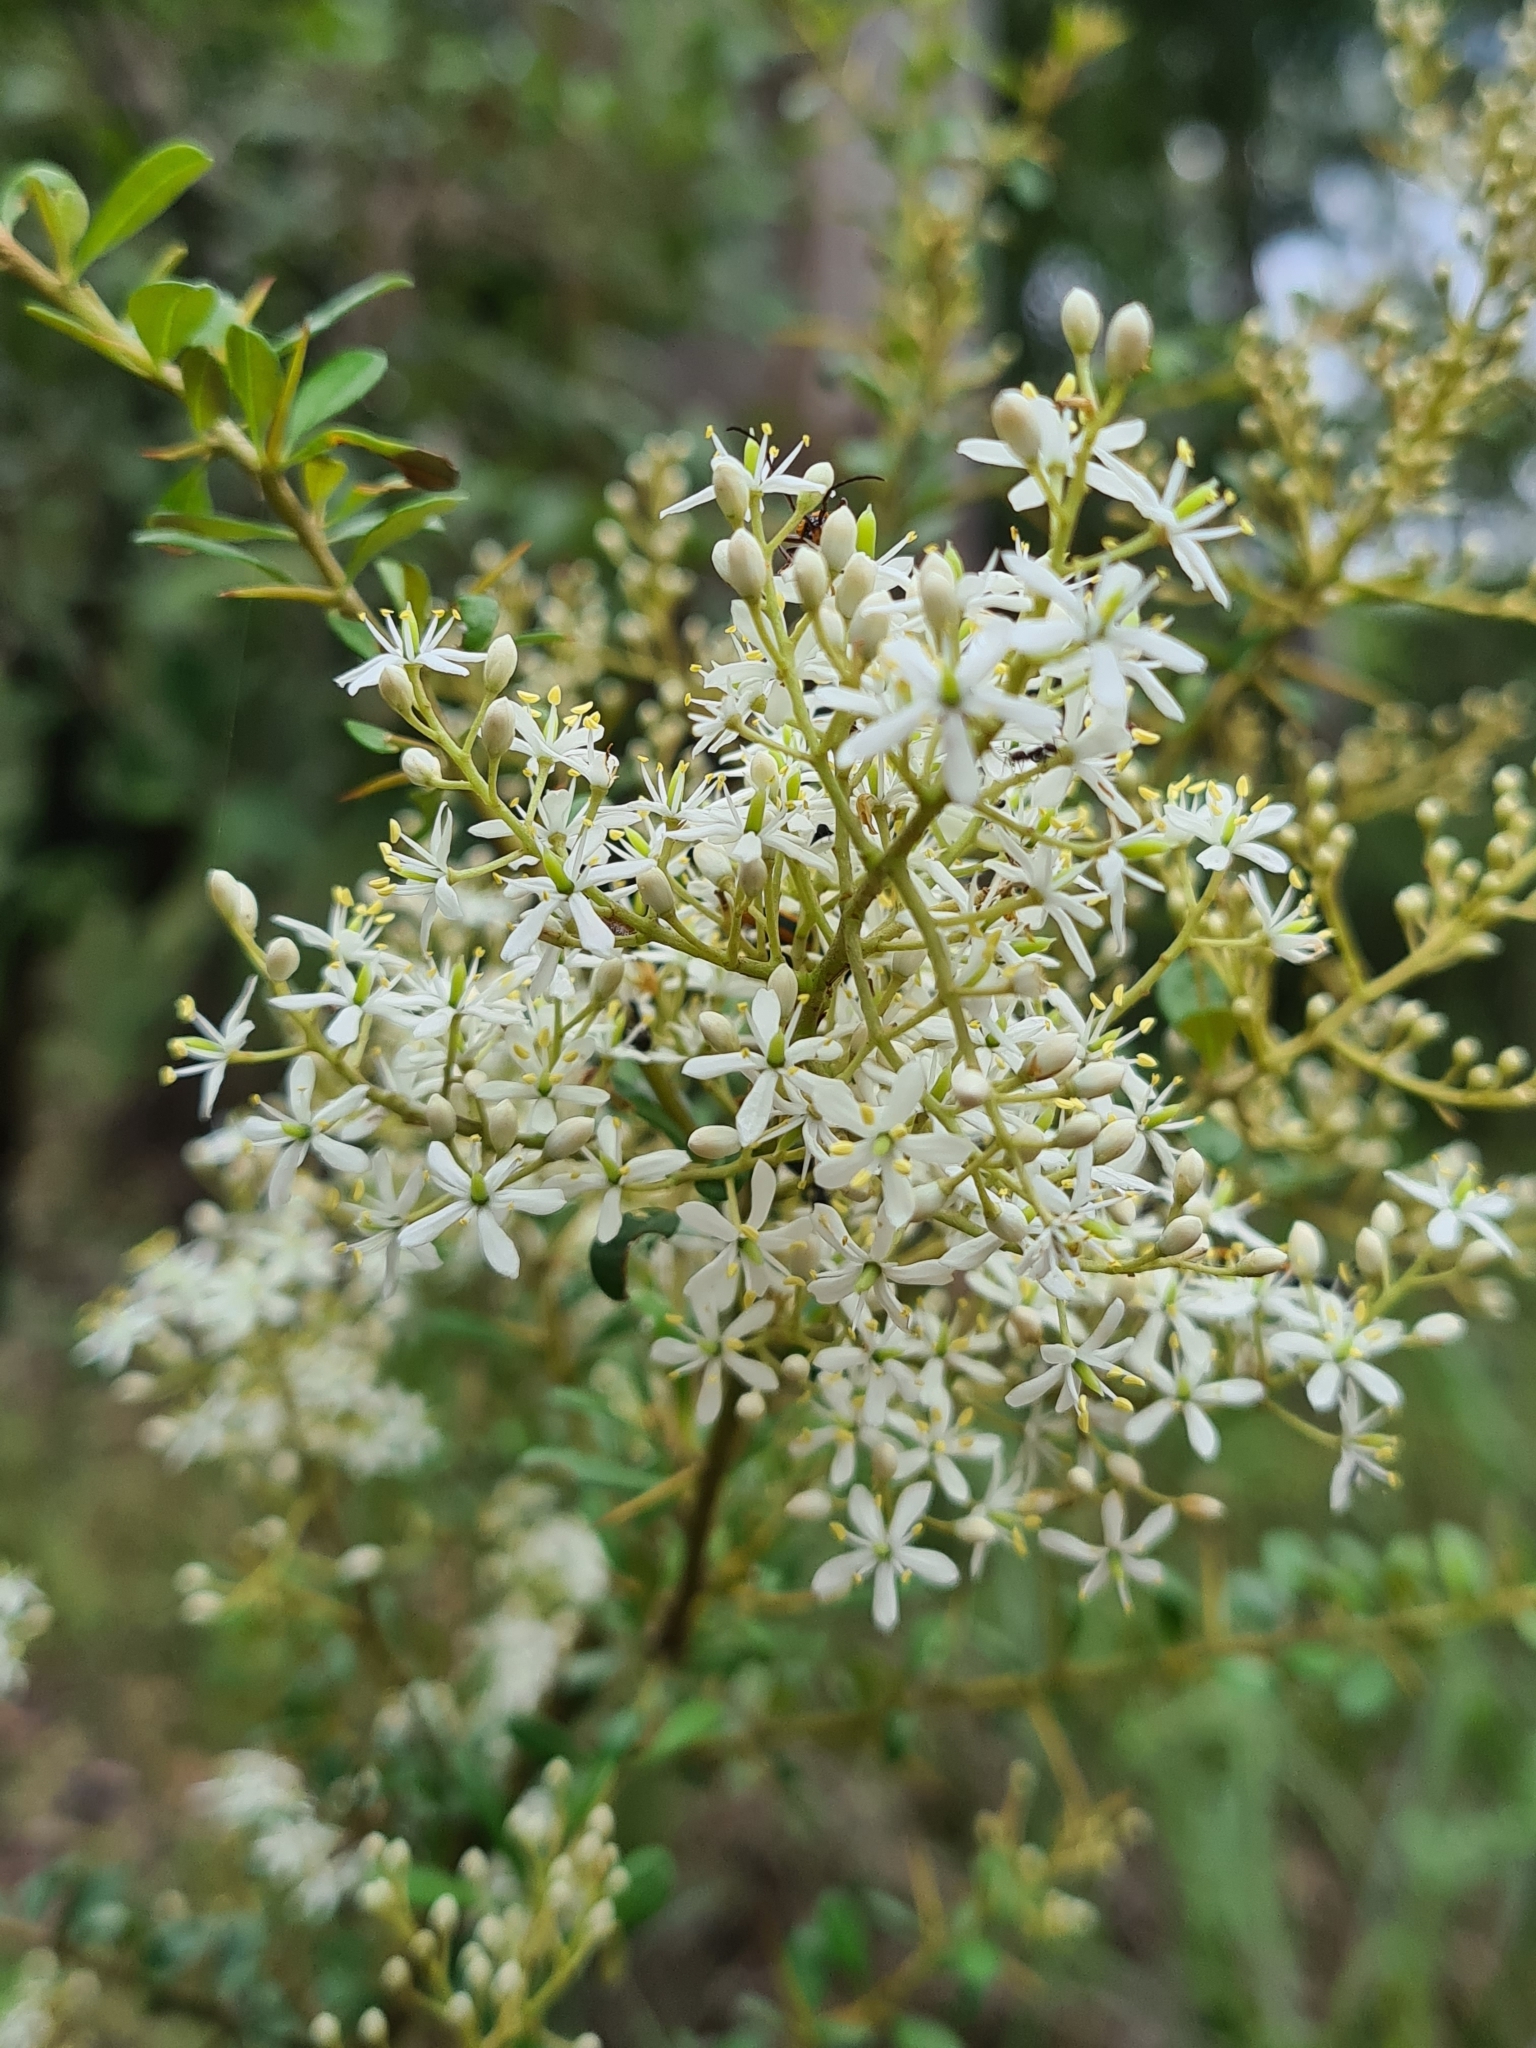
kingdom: Plantae
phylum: Tracheophyta
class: Magnoliopsida
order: Apiales
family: Pittosporaceae
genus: Bursaria
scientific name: Bursaria spinosa
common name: Australian blackthorn
